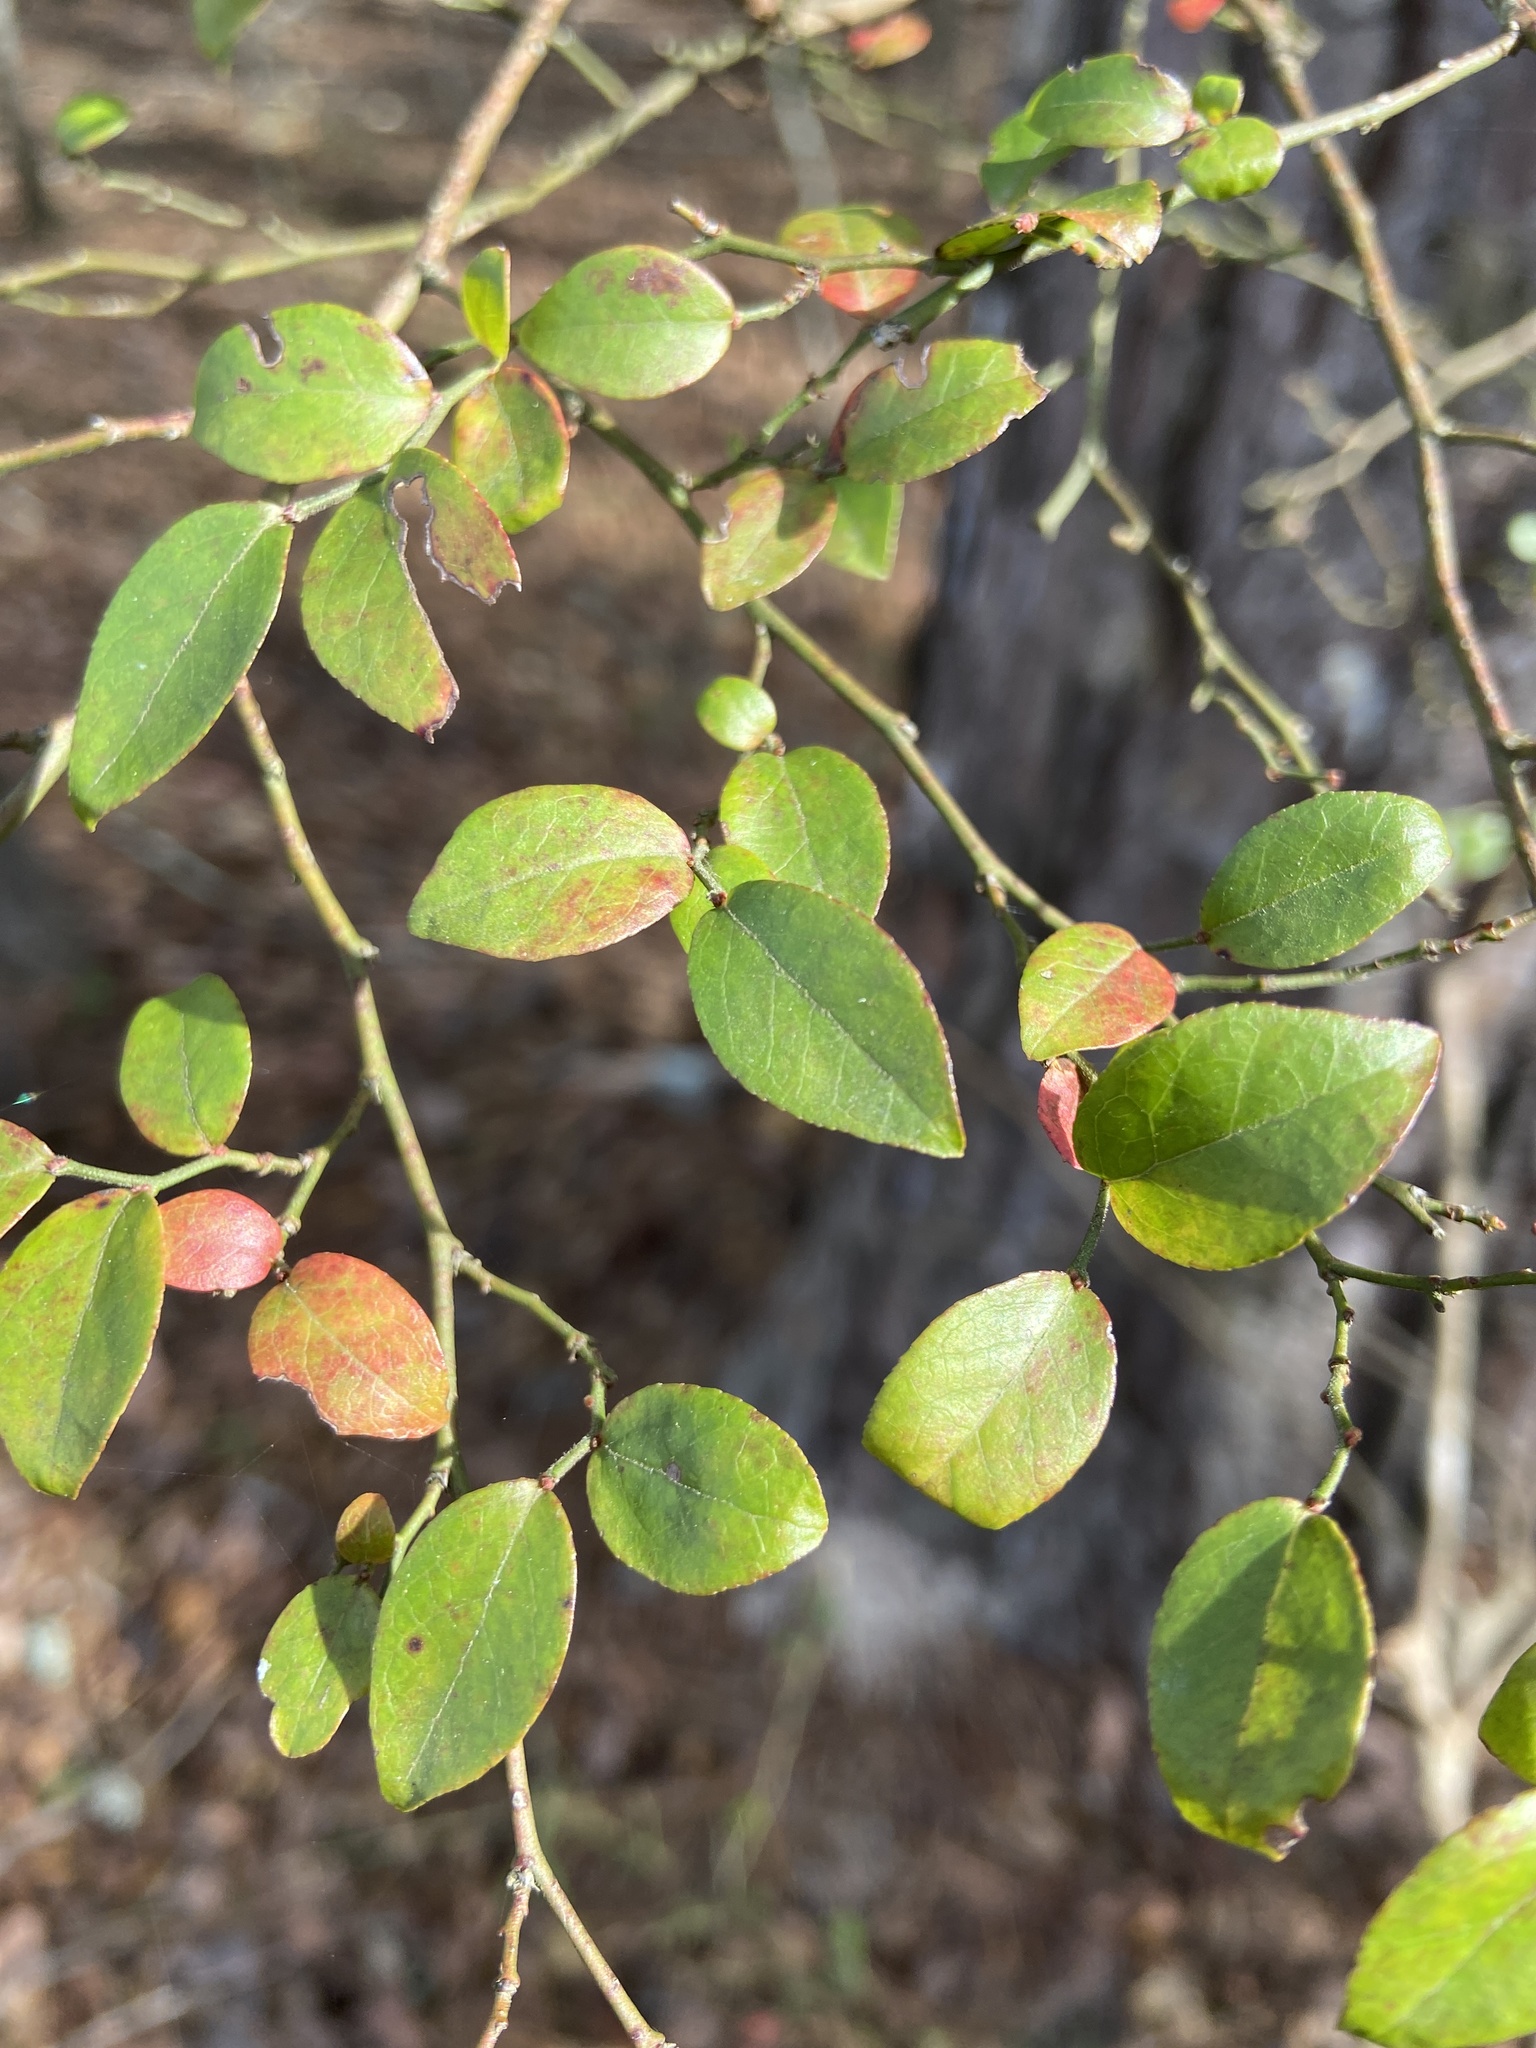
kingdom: Plantae
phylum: Tracheophyta
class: Magnoliopsida
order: Ericales
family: Ericaceae
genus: Vaccinium
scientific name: Vaccinium corymbosum
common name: Blueberry
